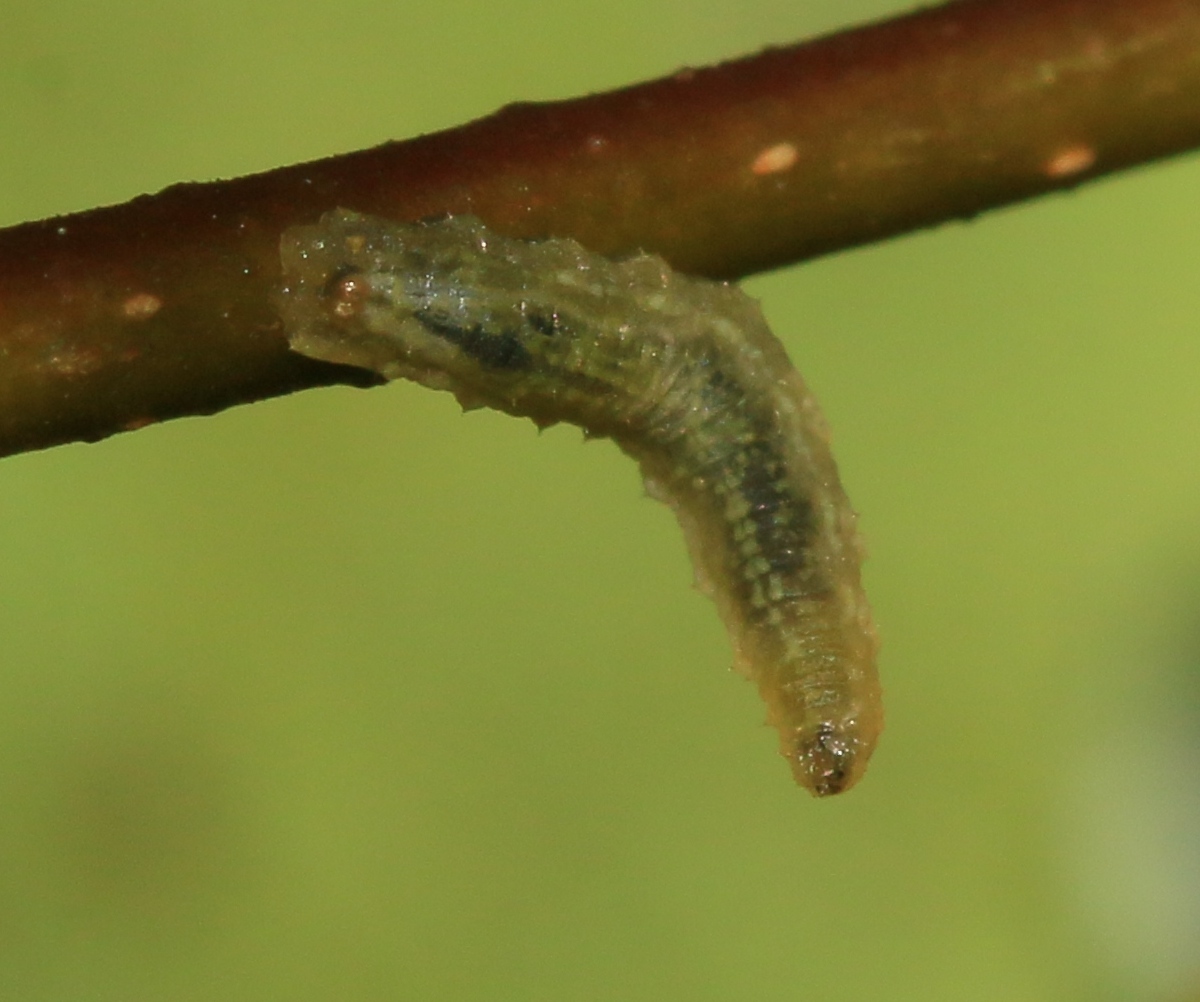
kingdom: Animalia
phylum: Arthropoda
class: Insecta
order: Diptera
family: Syrphidae
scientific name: Syrphidae
